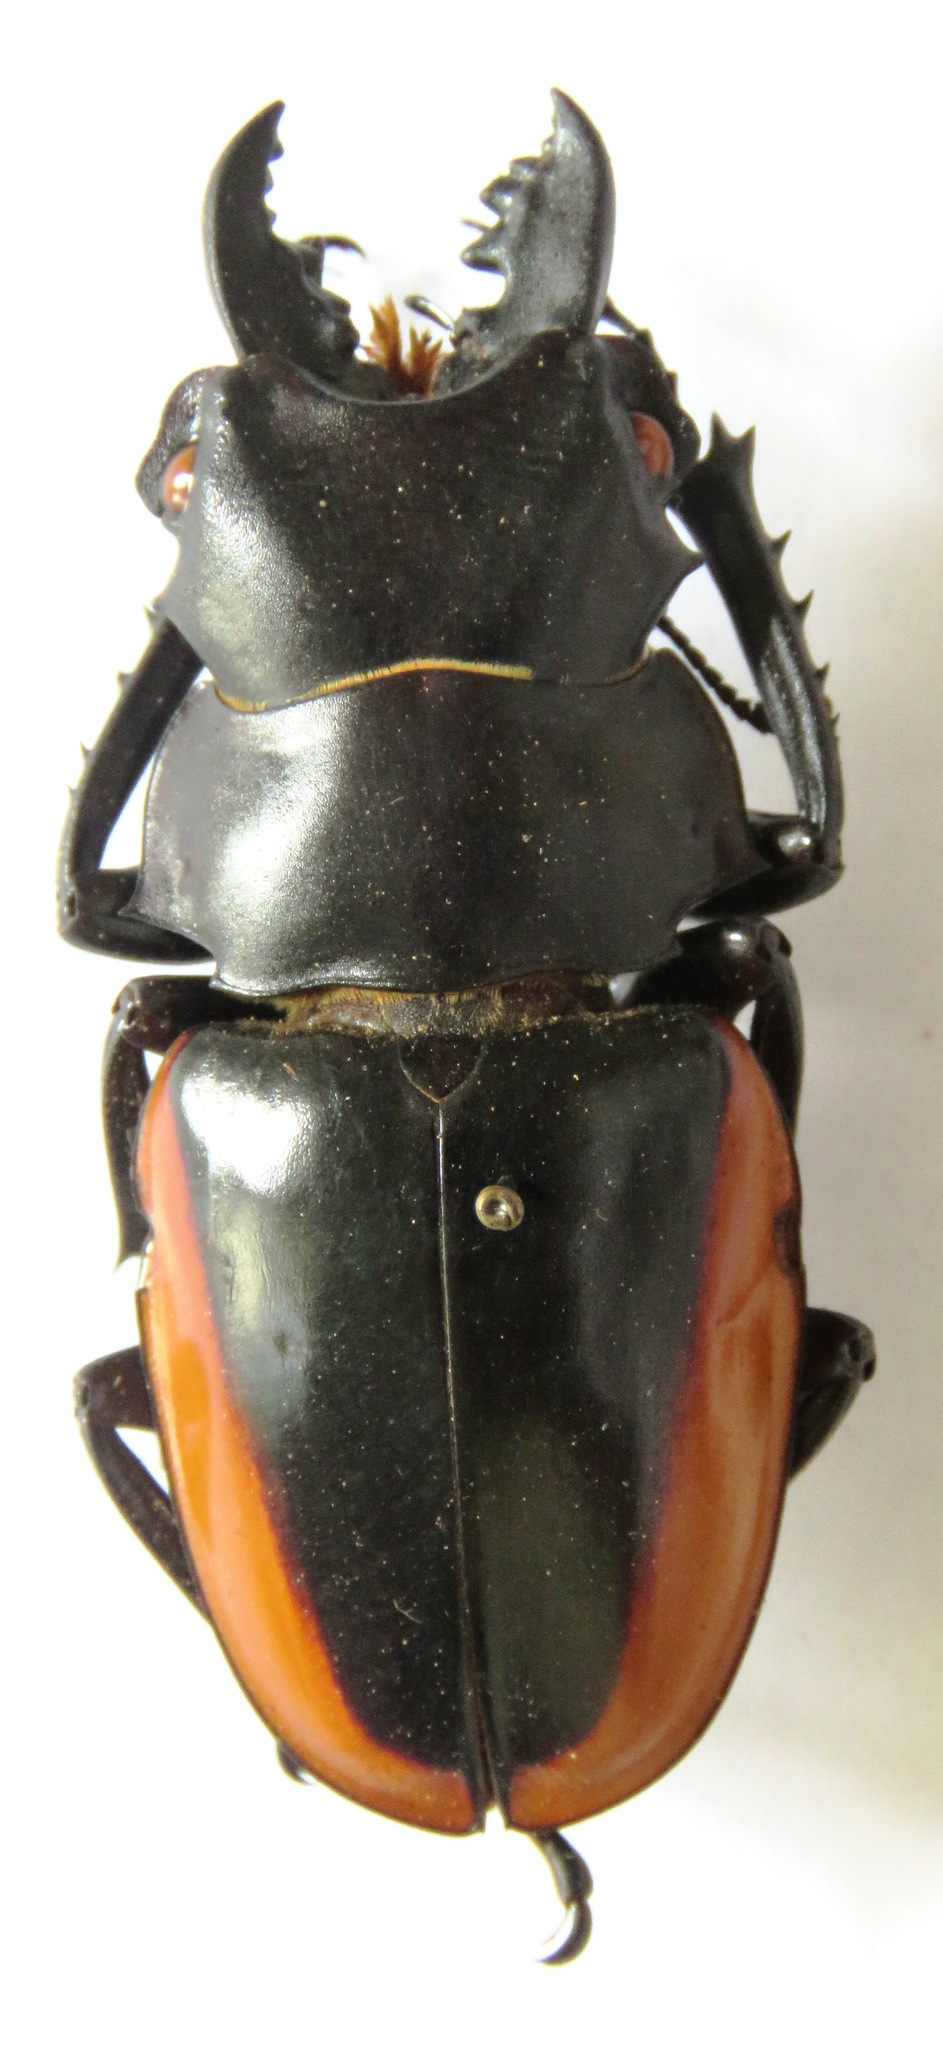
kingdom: Animalia
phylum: Arthropoda
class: Insecta
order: Coleoptera
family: Lucanidae
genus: Odontolabis
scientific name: Odontolabis cuvera
